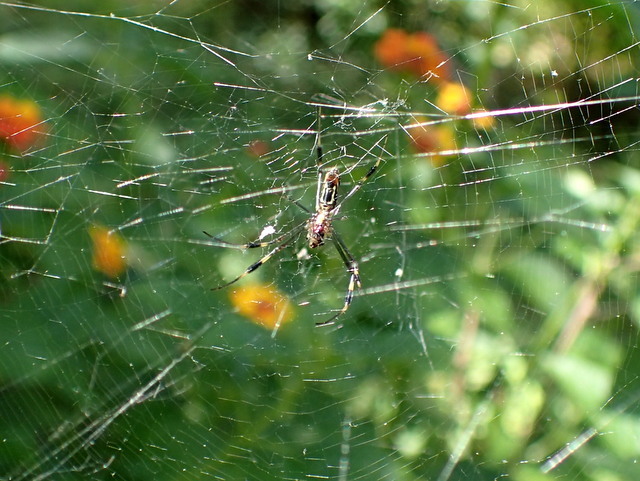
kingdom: Animalia
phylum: Arthropoda
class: Arachnida
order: Araneae
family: Araneidae
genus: Trichonephila
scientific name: Trichonephila clavipes
